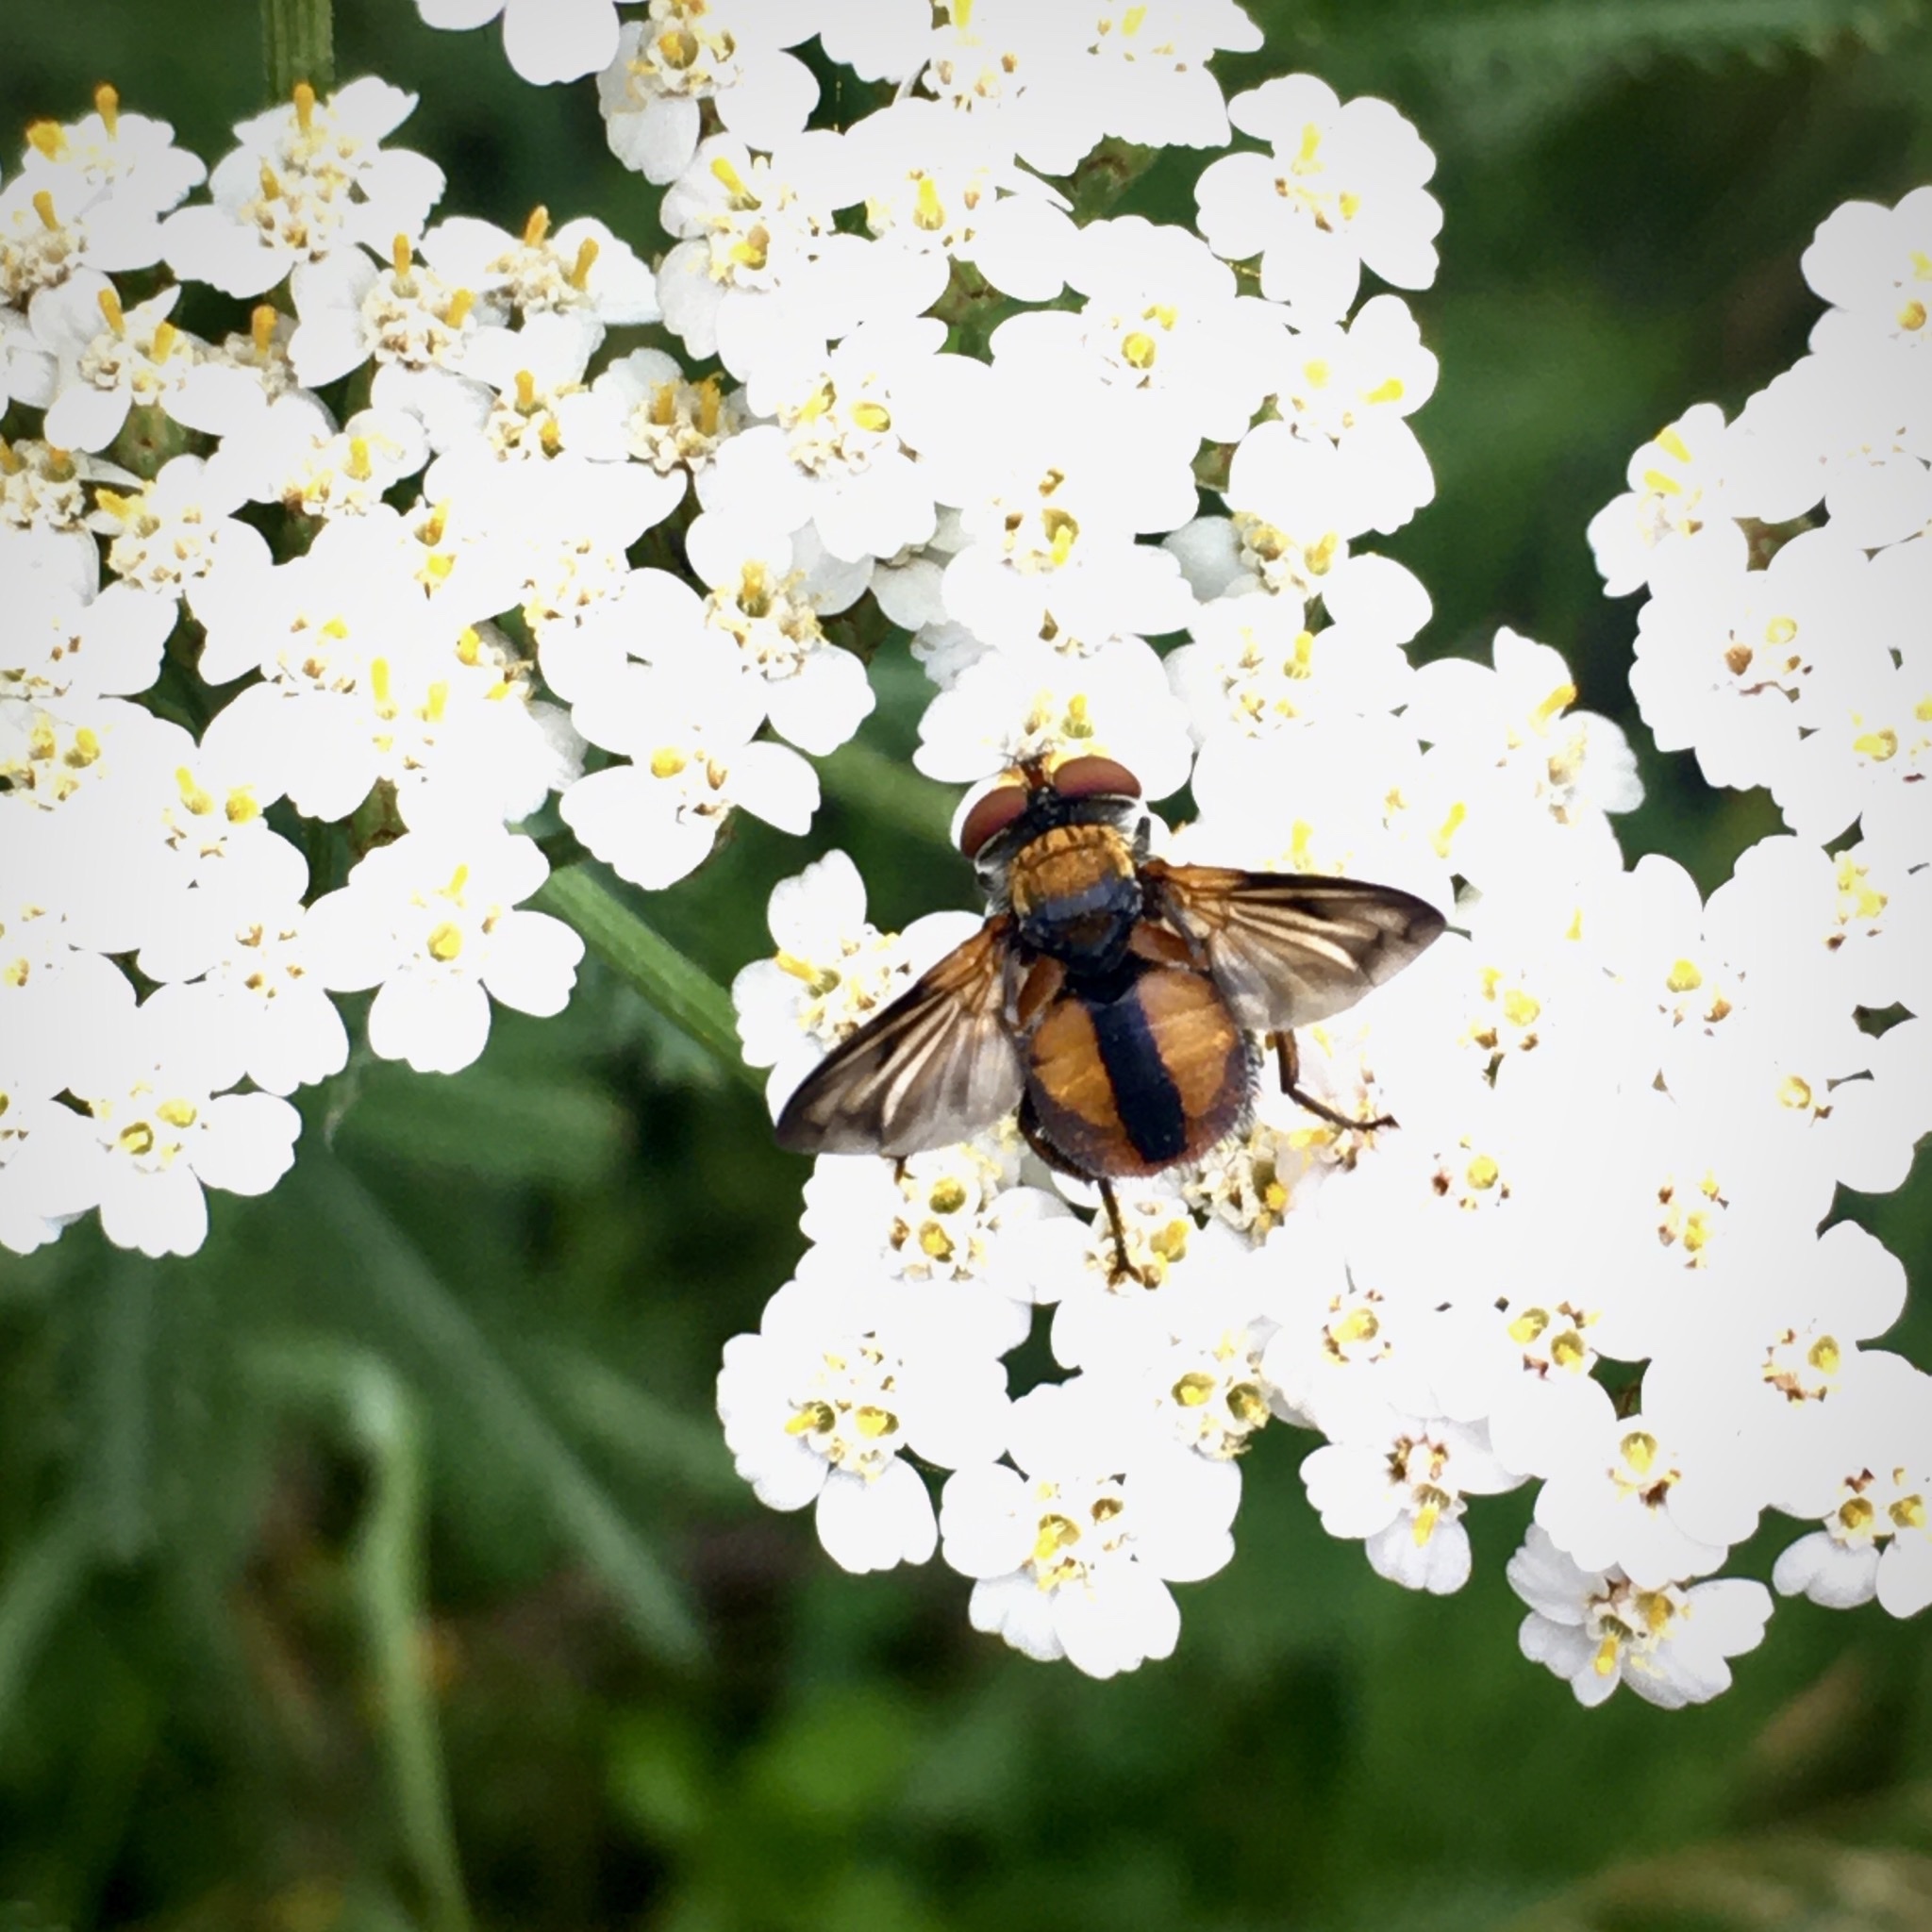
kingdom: Animalia
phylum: Arthropoda
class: Insecta
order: Diptera
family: Tachinidae
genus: Ectophasia
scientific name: Ectophasia crassipennis
